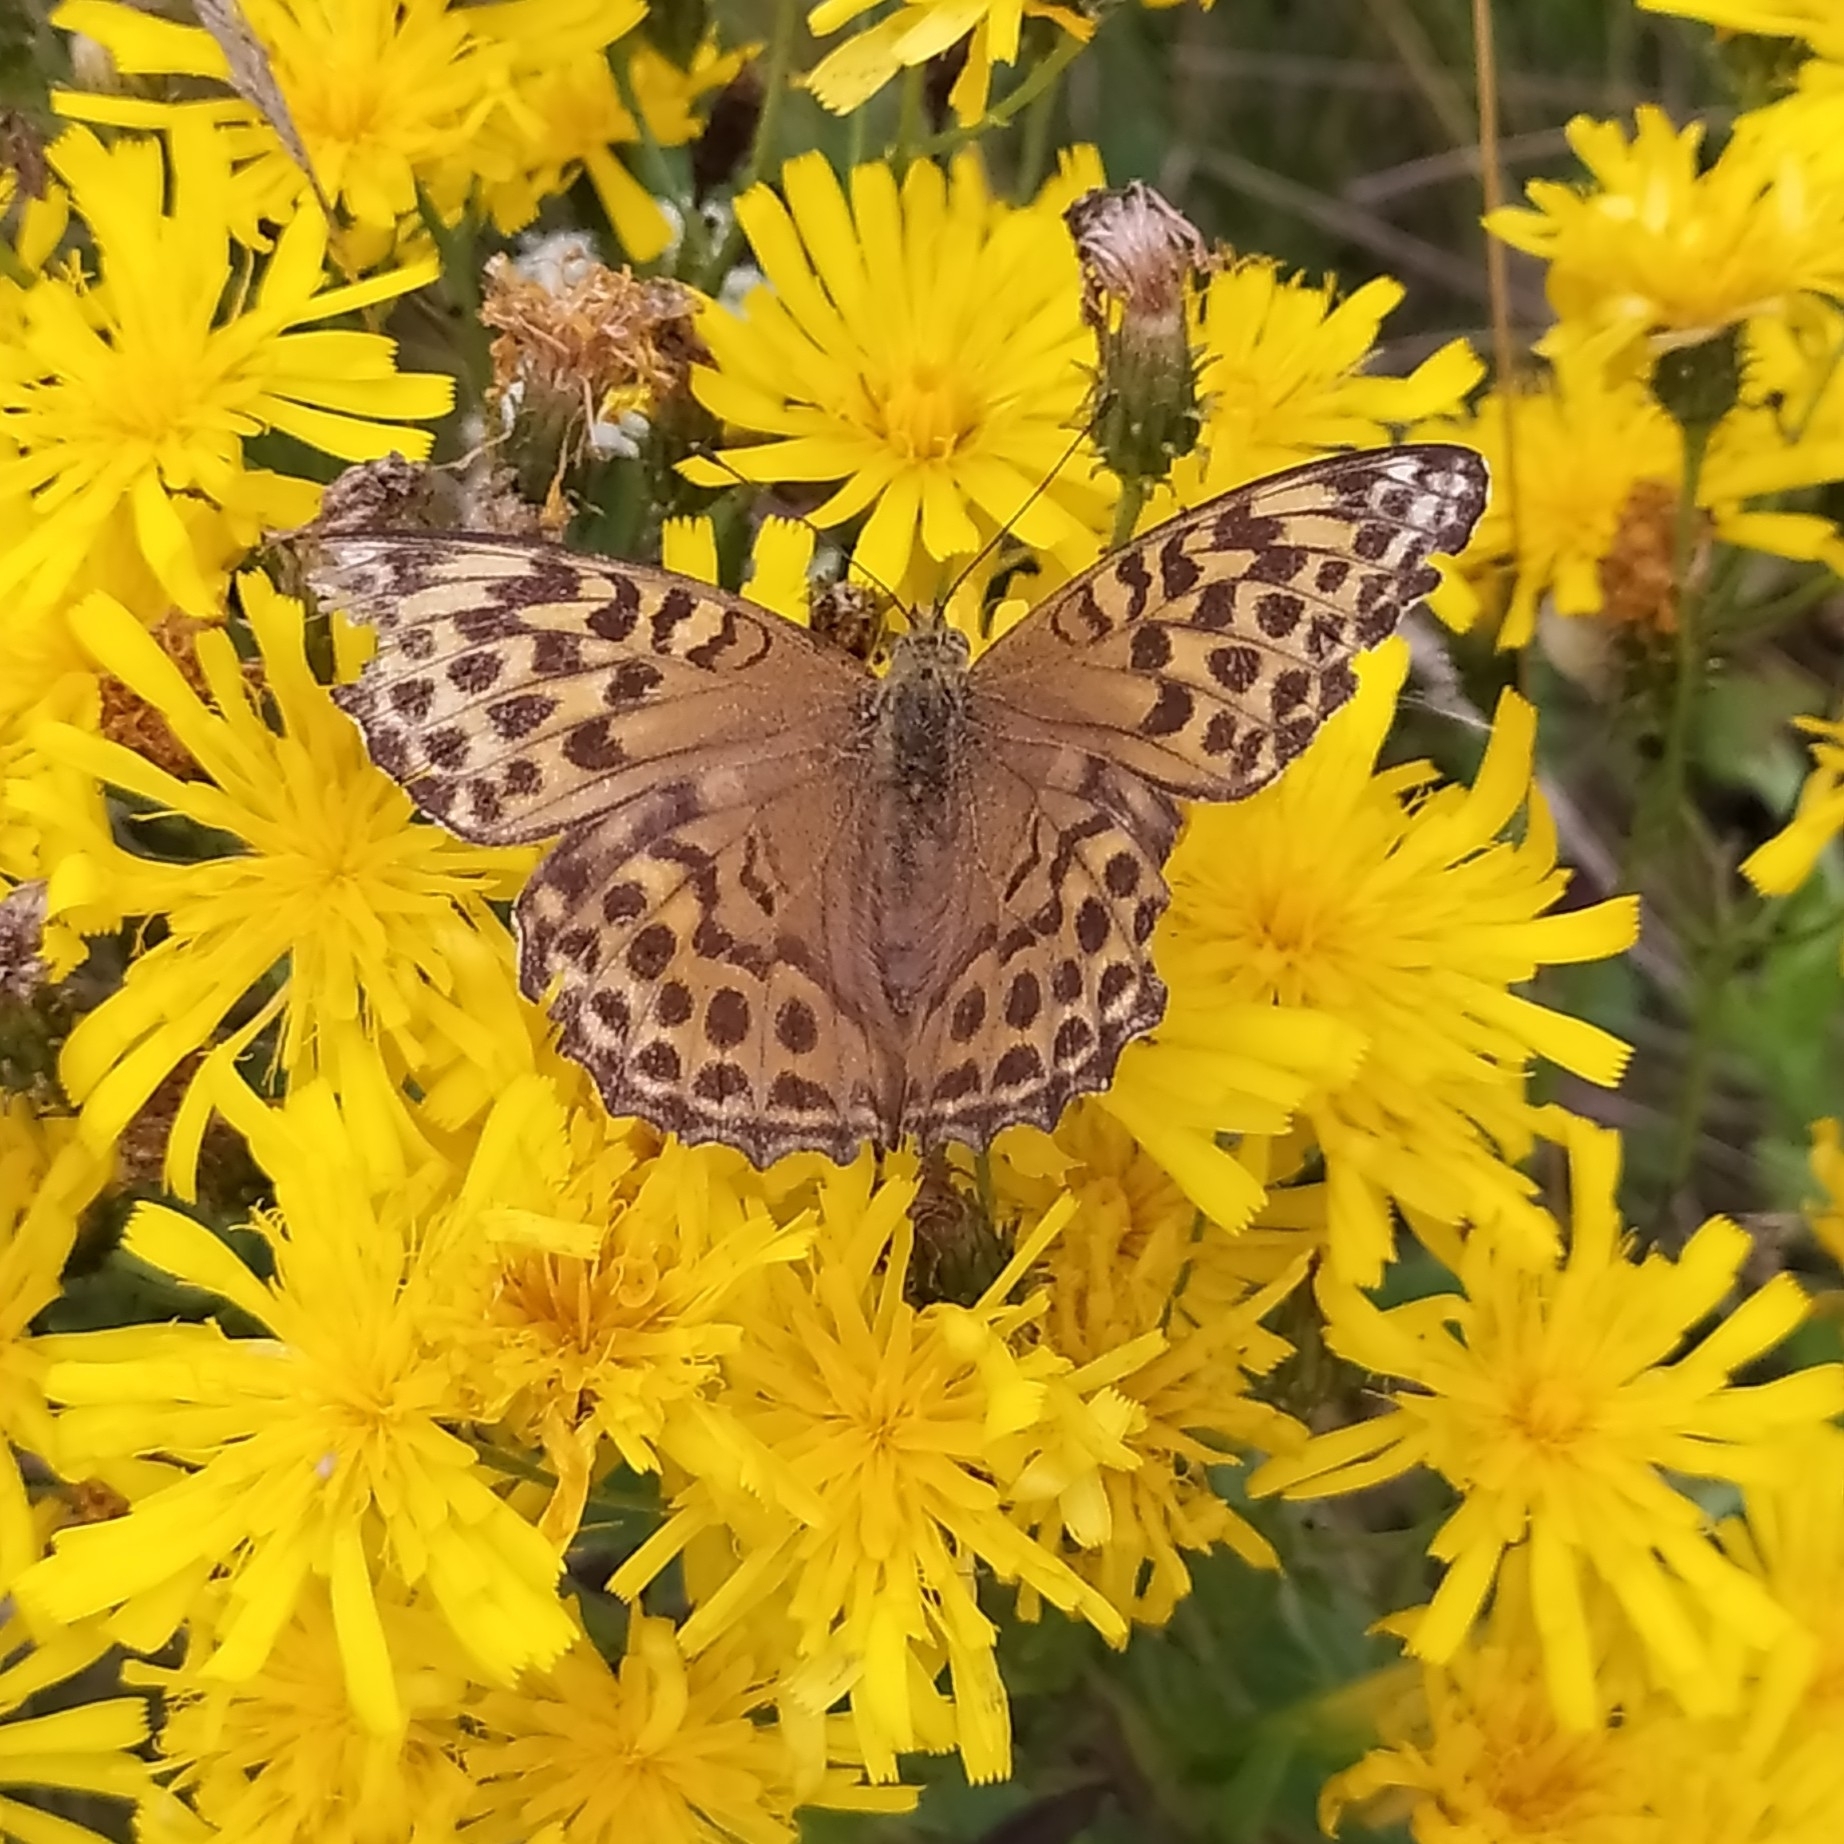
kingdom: Animalia
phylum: Arthropoda
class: Insecta
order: Lepidoptera
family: Nymphalidae
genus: Argynnis
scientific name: Argynnis paphia
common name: Silver-washed fritillary
